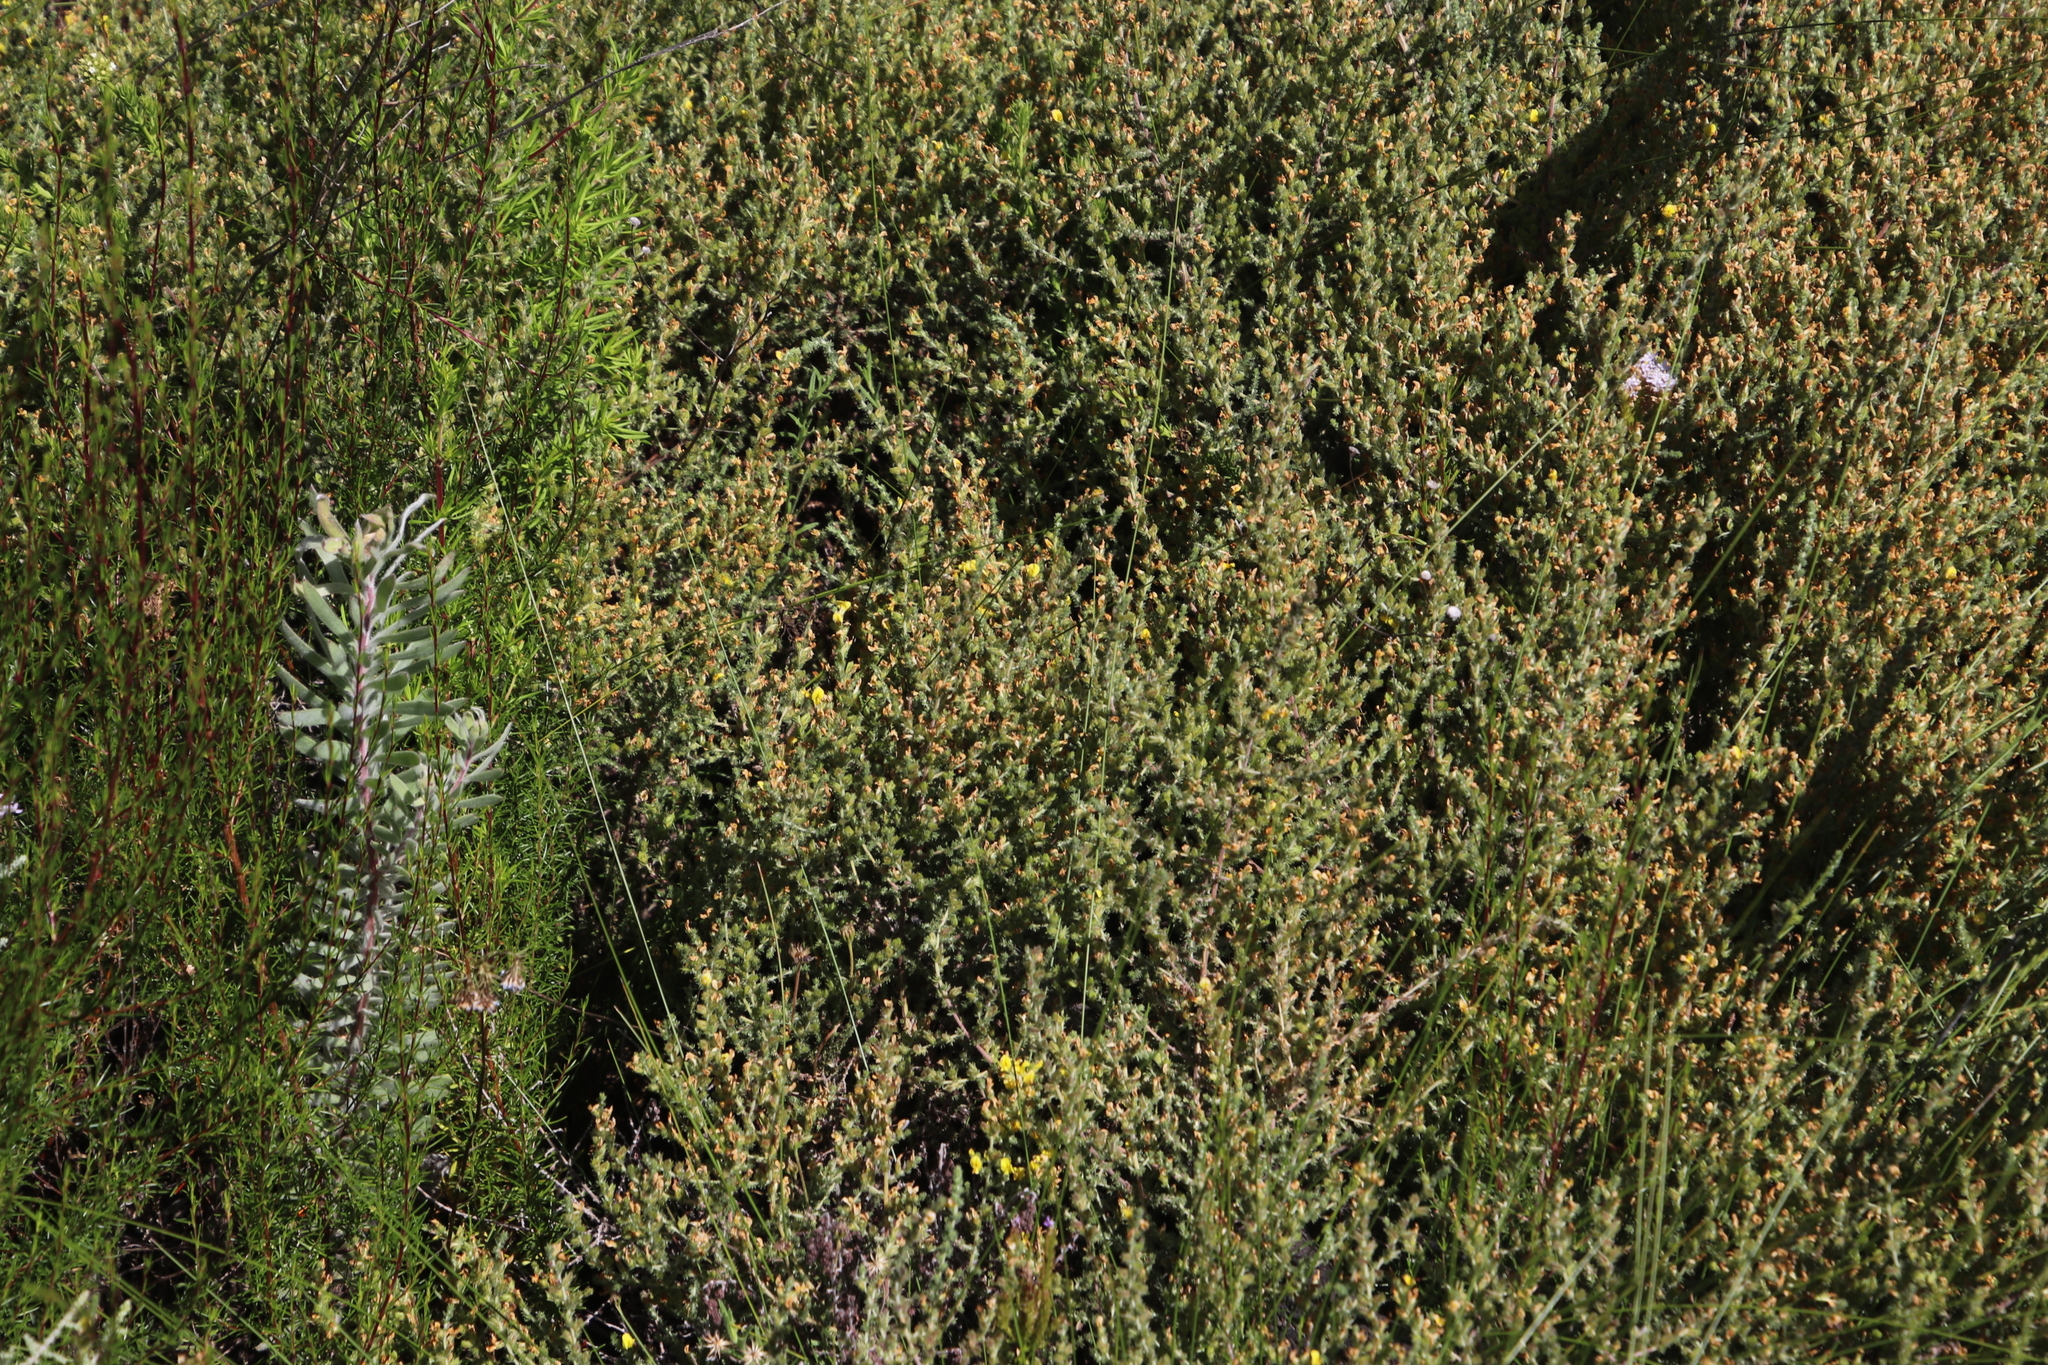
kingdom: Plantae
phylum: Tracheophyta
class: Magnoliopsida
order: Fabales
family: Fabaceae
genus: Aspalathus
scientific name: Aspalathus flexuosa
